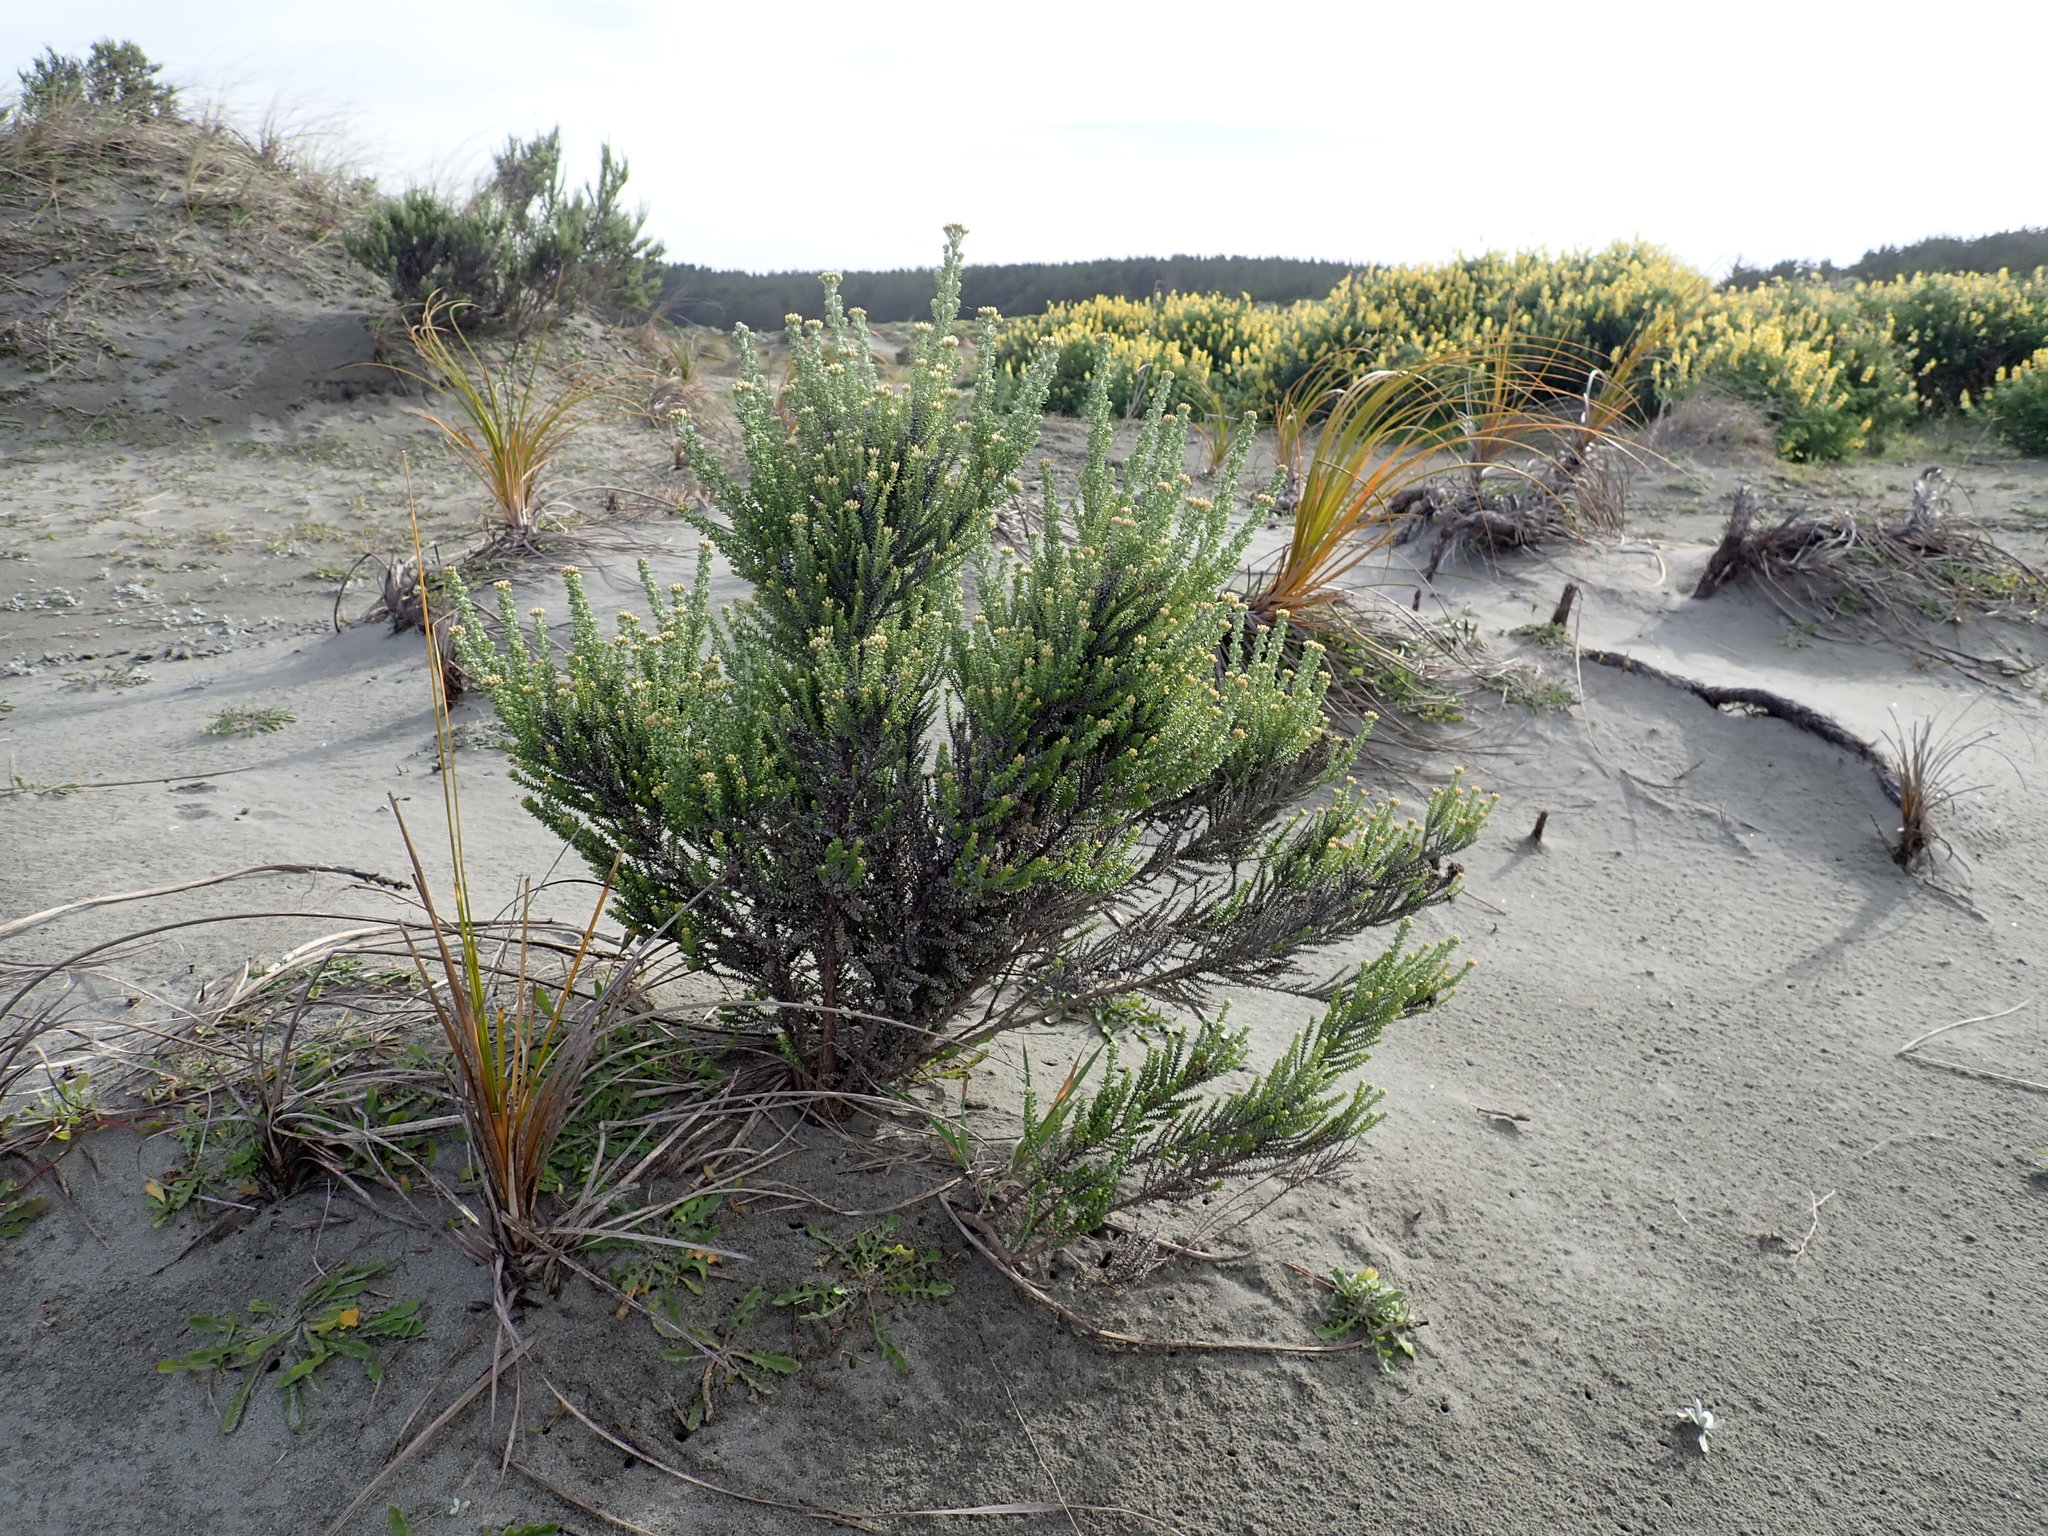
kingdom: Plantae
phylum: Tracheophyta
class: Magnoliopsida
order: Asterales
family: Asteraceae
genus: Ozothamnus
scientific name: Ozothamnus leptophyllus
